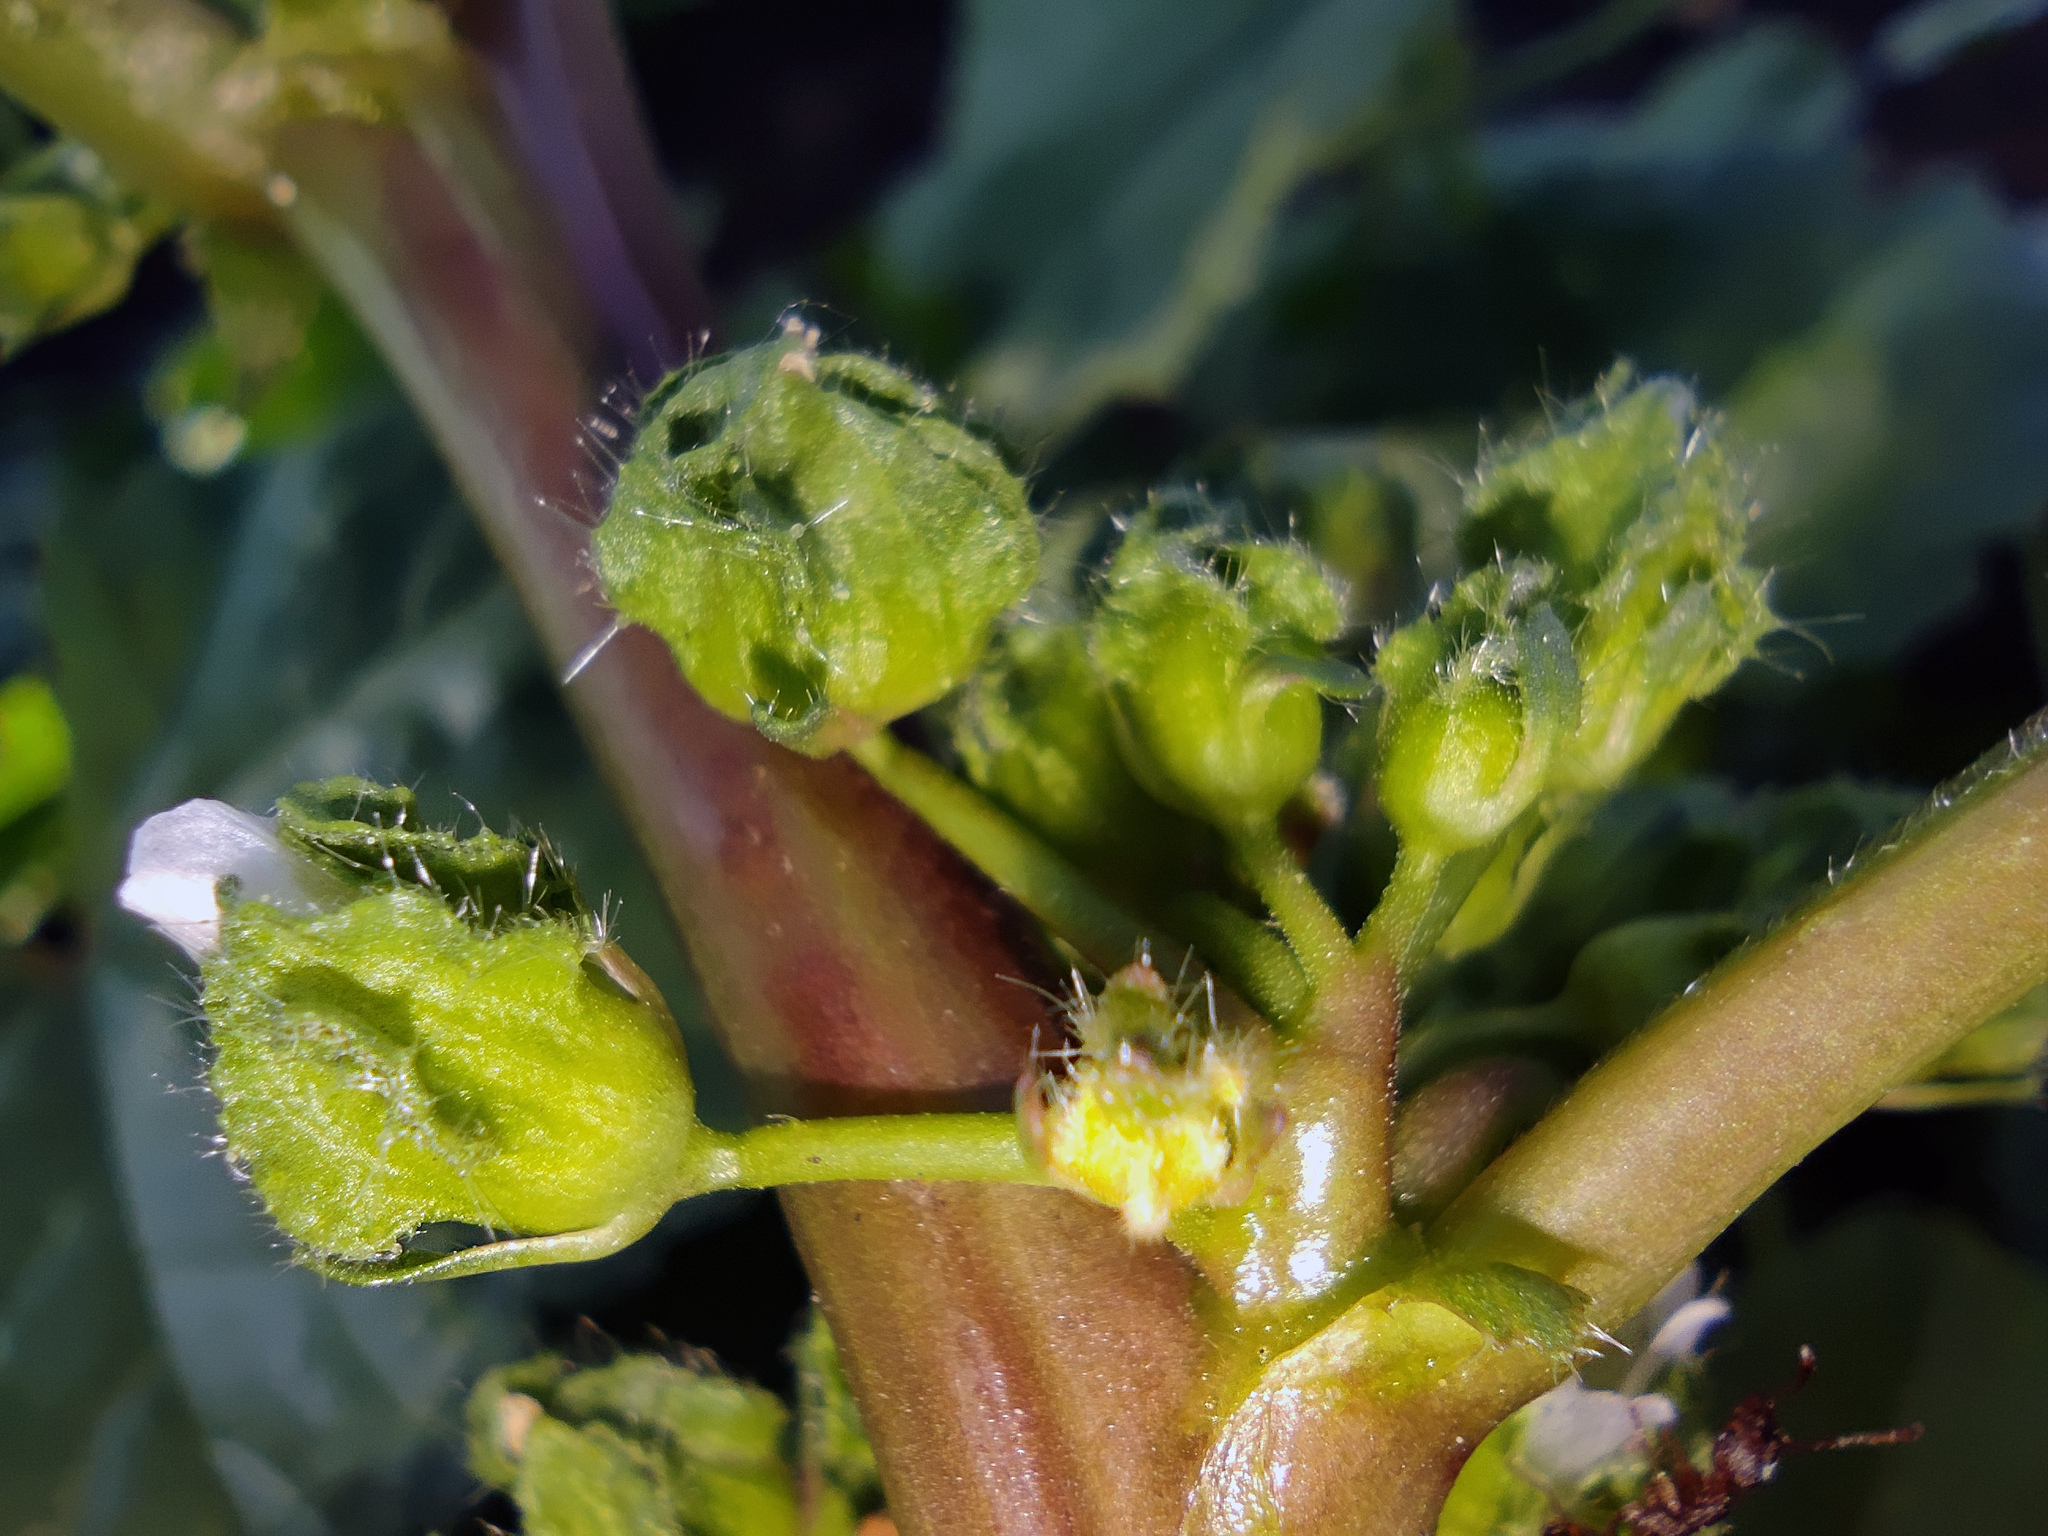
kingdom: Plantae
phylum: Tracheophyta
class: Magnoliopsida
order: Malvales
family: Malvaceae
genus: Malva
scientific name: Malva pusilla
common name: Small mallow
